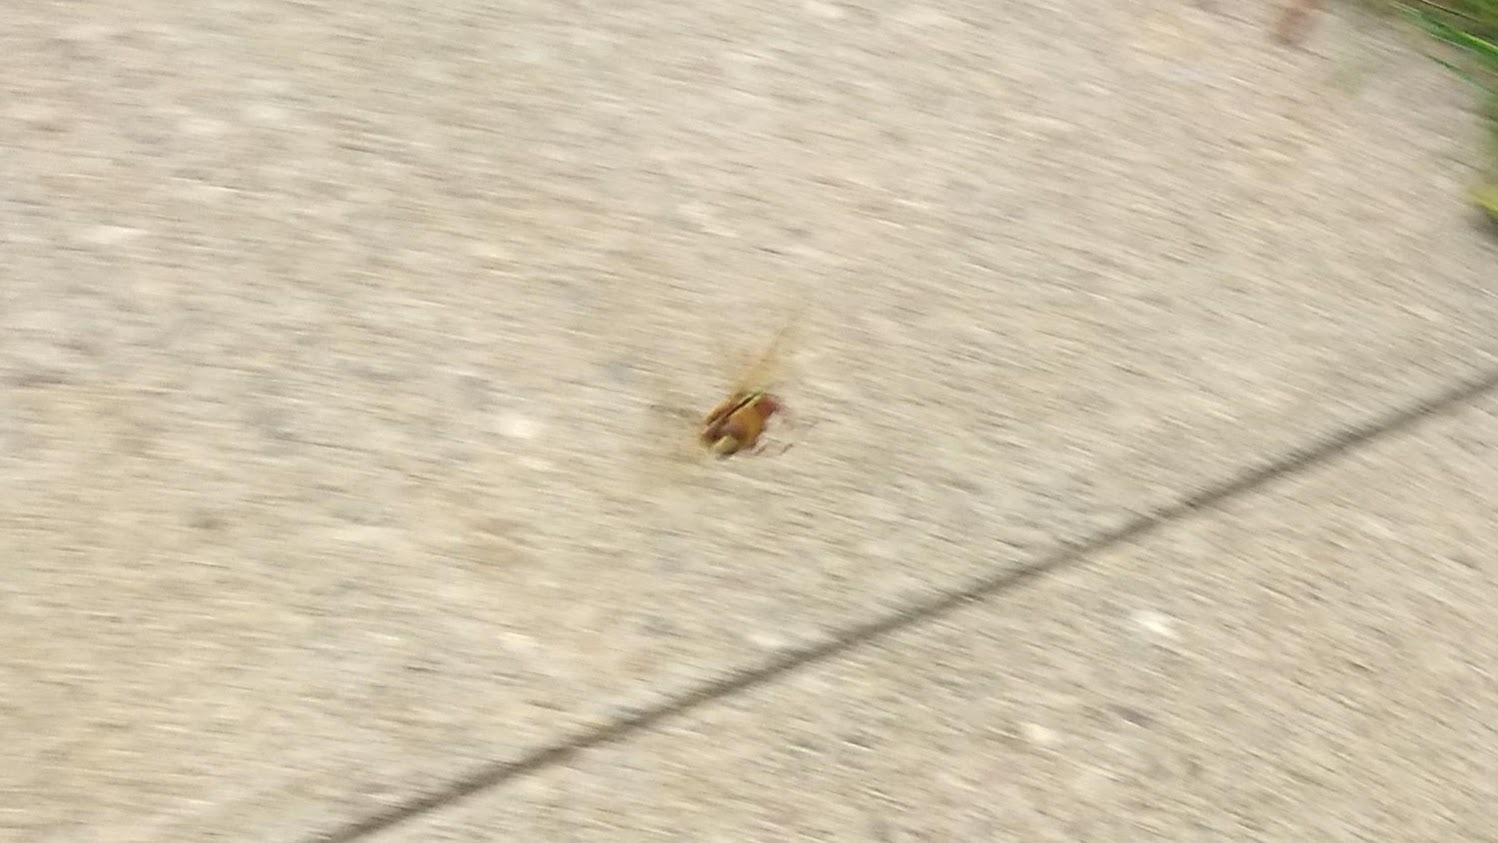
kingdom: Animalia
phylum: Arthropoda
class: Insecta
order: Hymenoptera
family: Crabronidae
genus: Sphecius
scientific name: Sphecius speciosus
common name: Cicada killer
